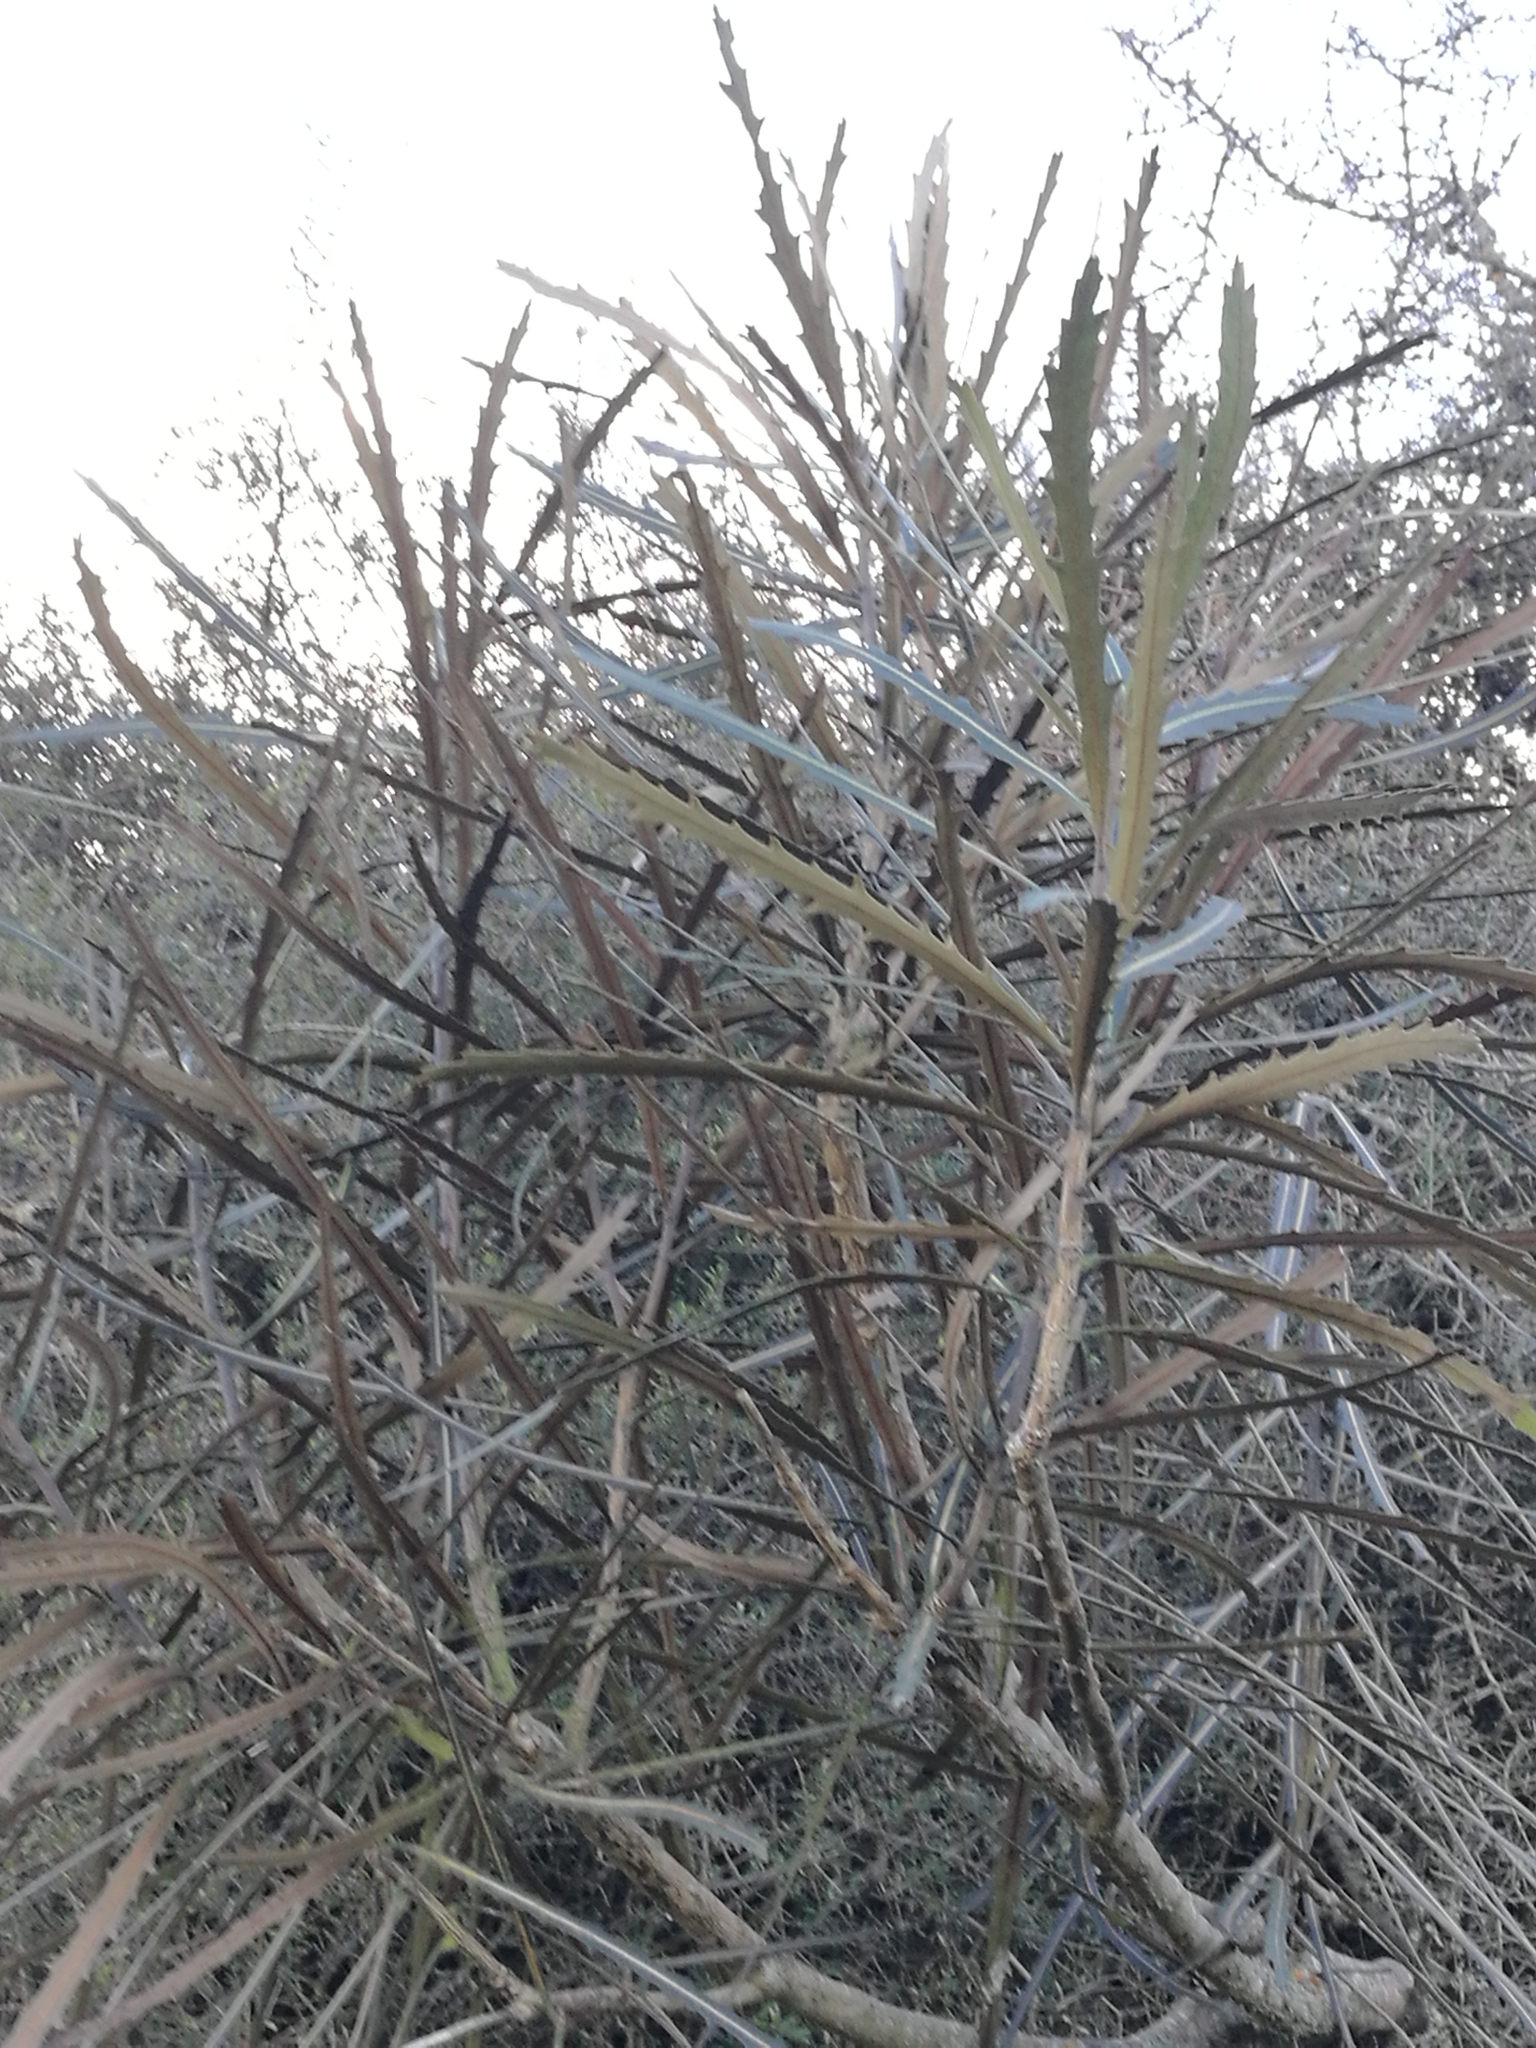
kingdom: Plantae
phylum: Tracheophyta
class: Magnoliopsida
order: Apiales
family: Araliaceae
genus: Pseudopanax
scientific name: Pseudopanax crassifolius
